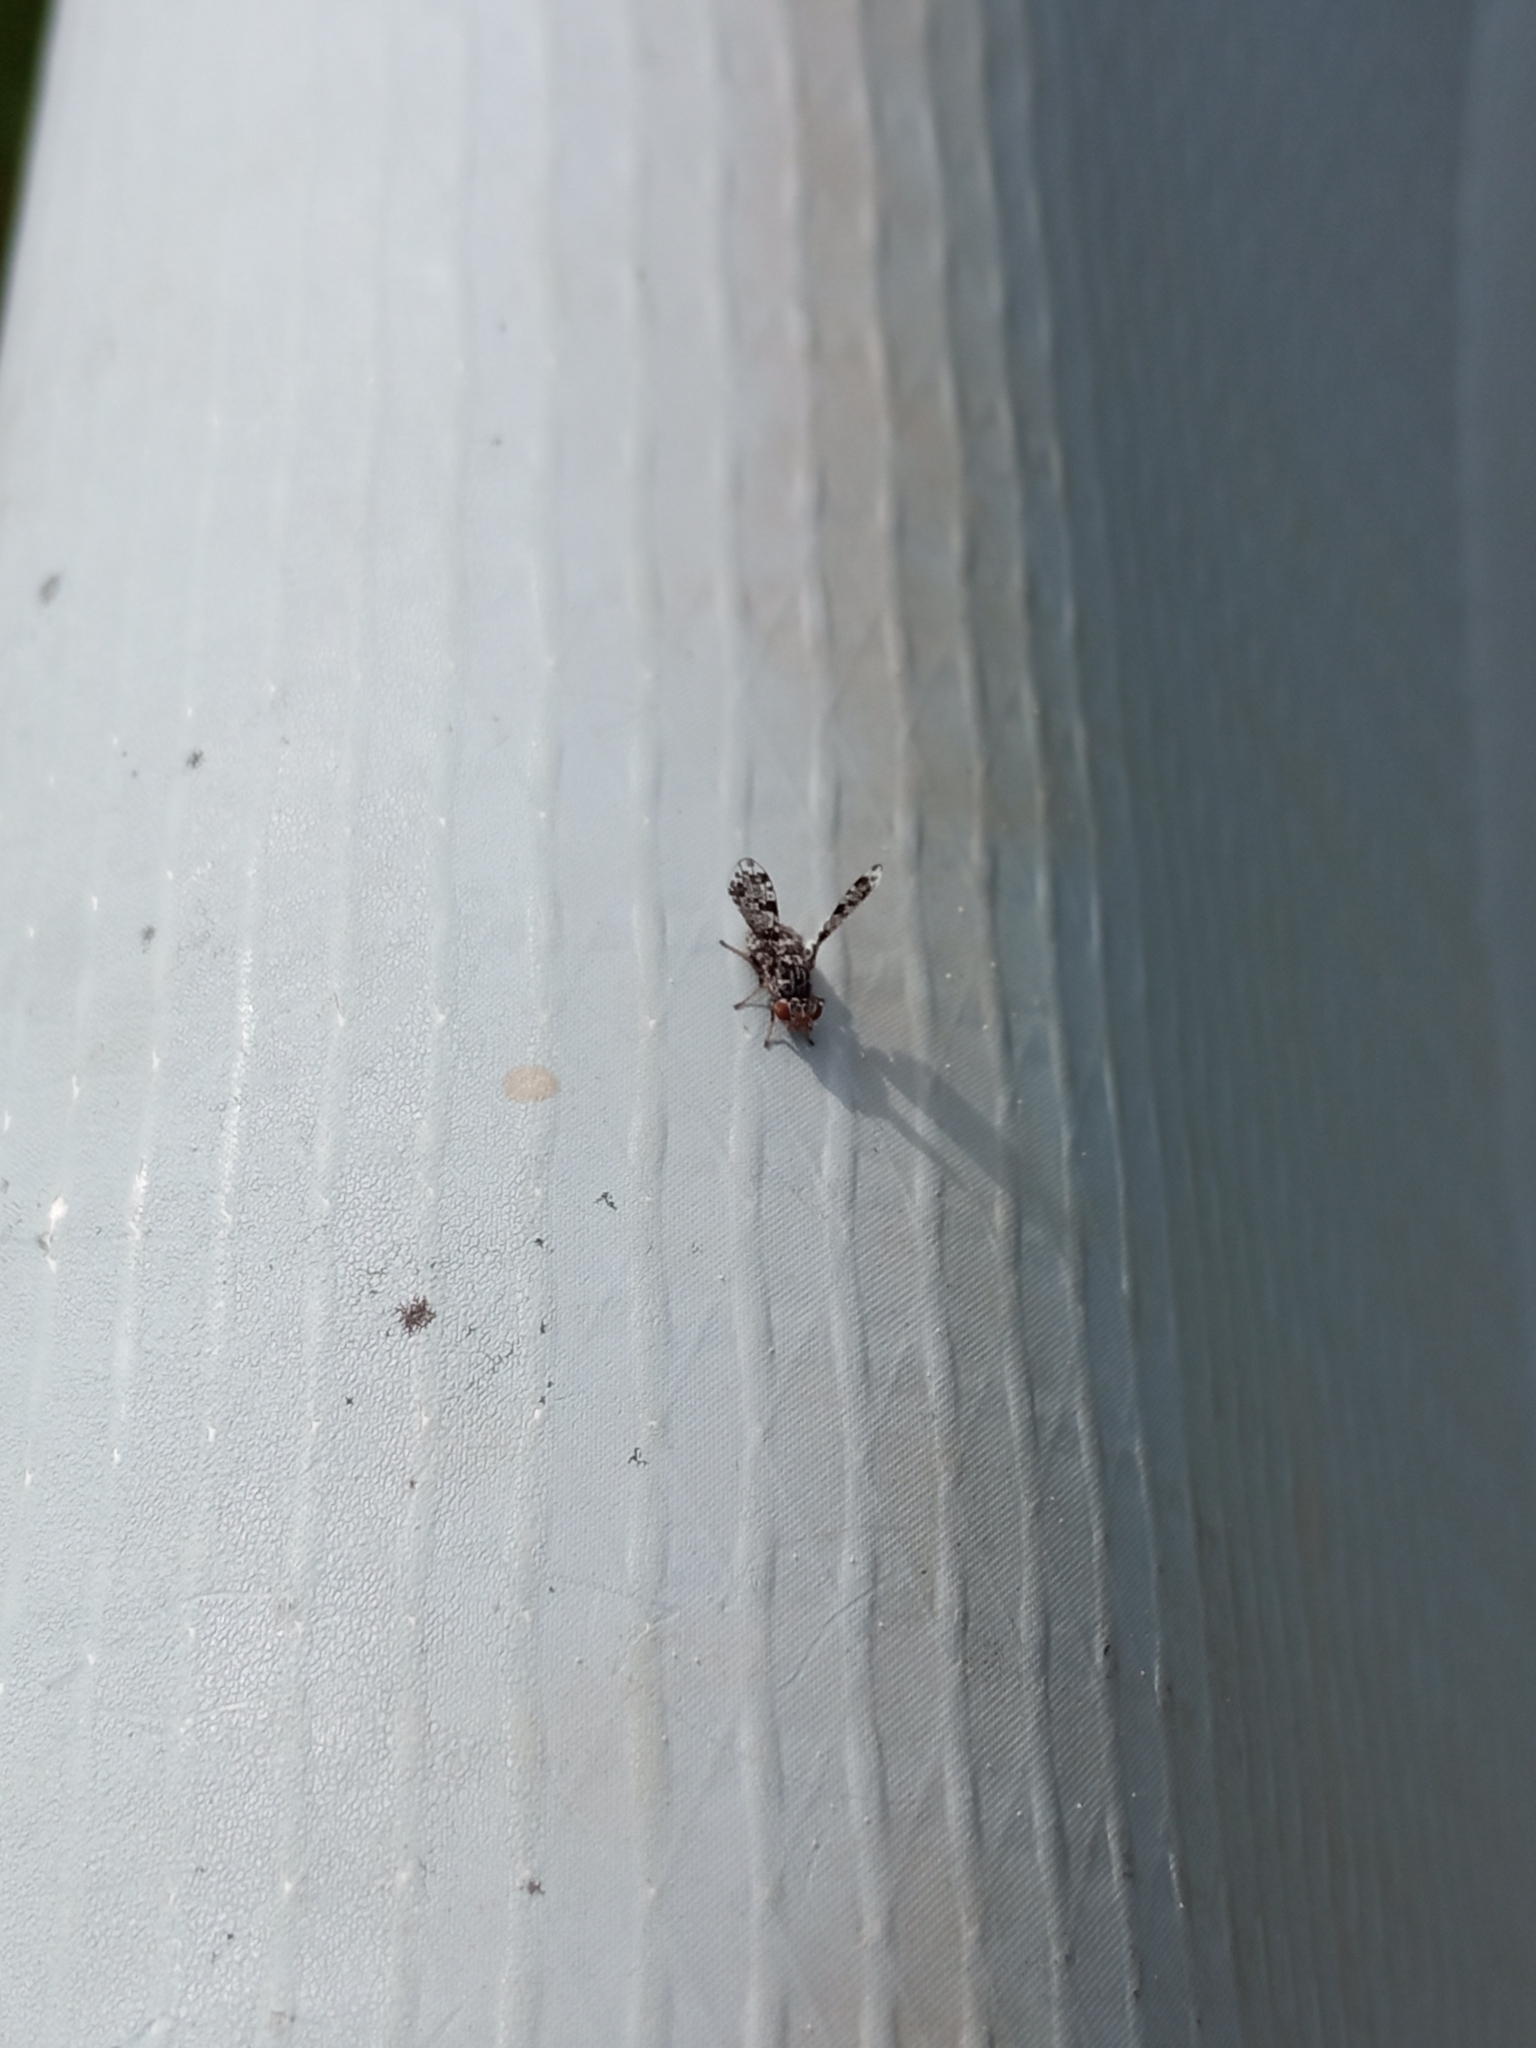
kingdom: Animalia
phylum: Arthropoda
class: Insecta
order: Diptera
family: Ulidiidae
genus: Callopistromyia
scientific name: Callopistromyia annulipes
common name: Peacock fly
